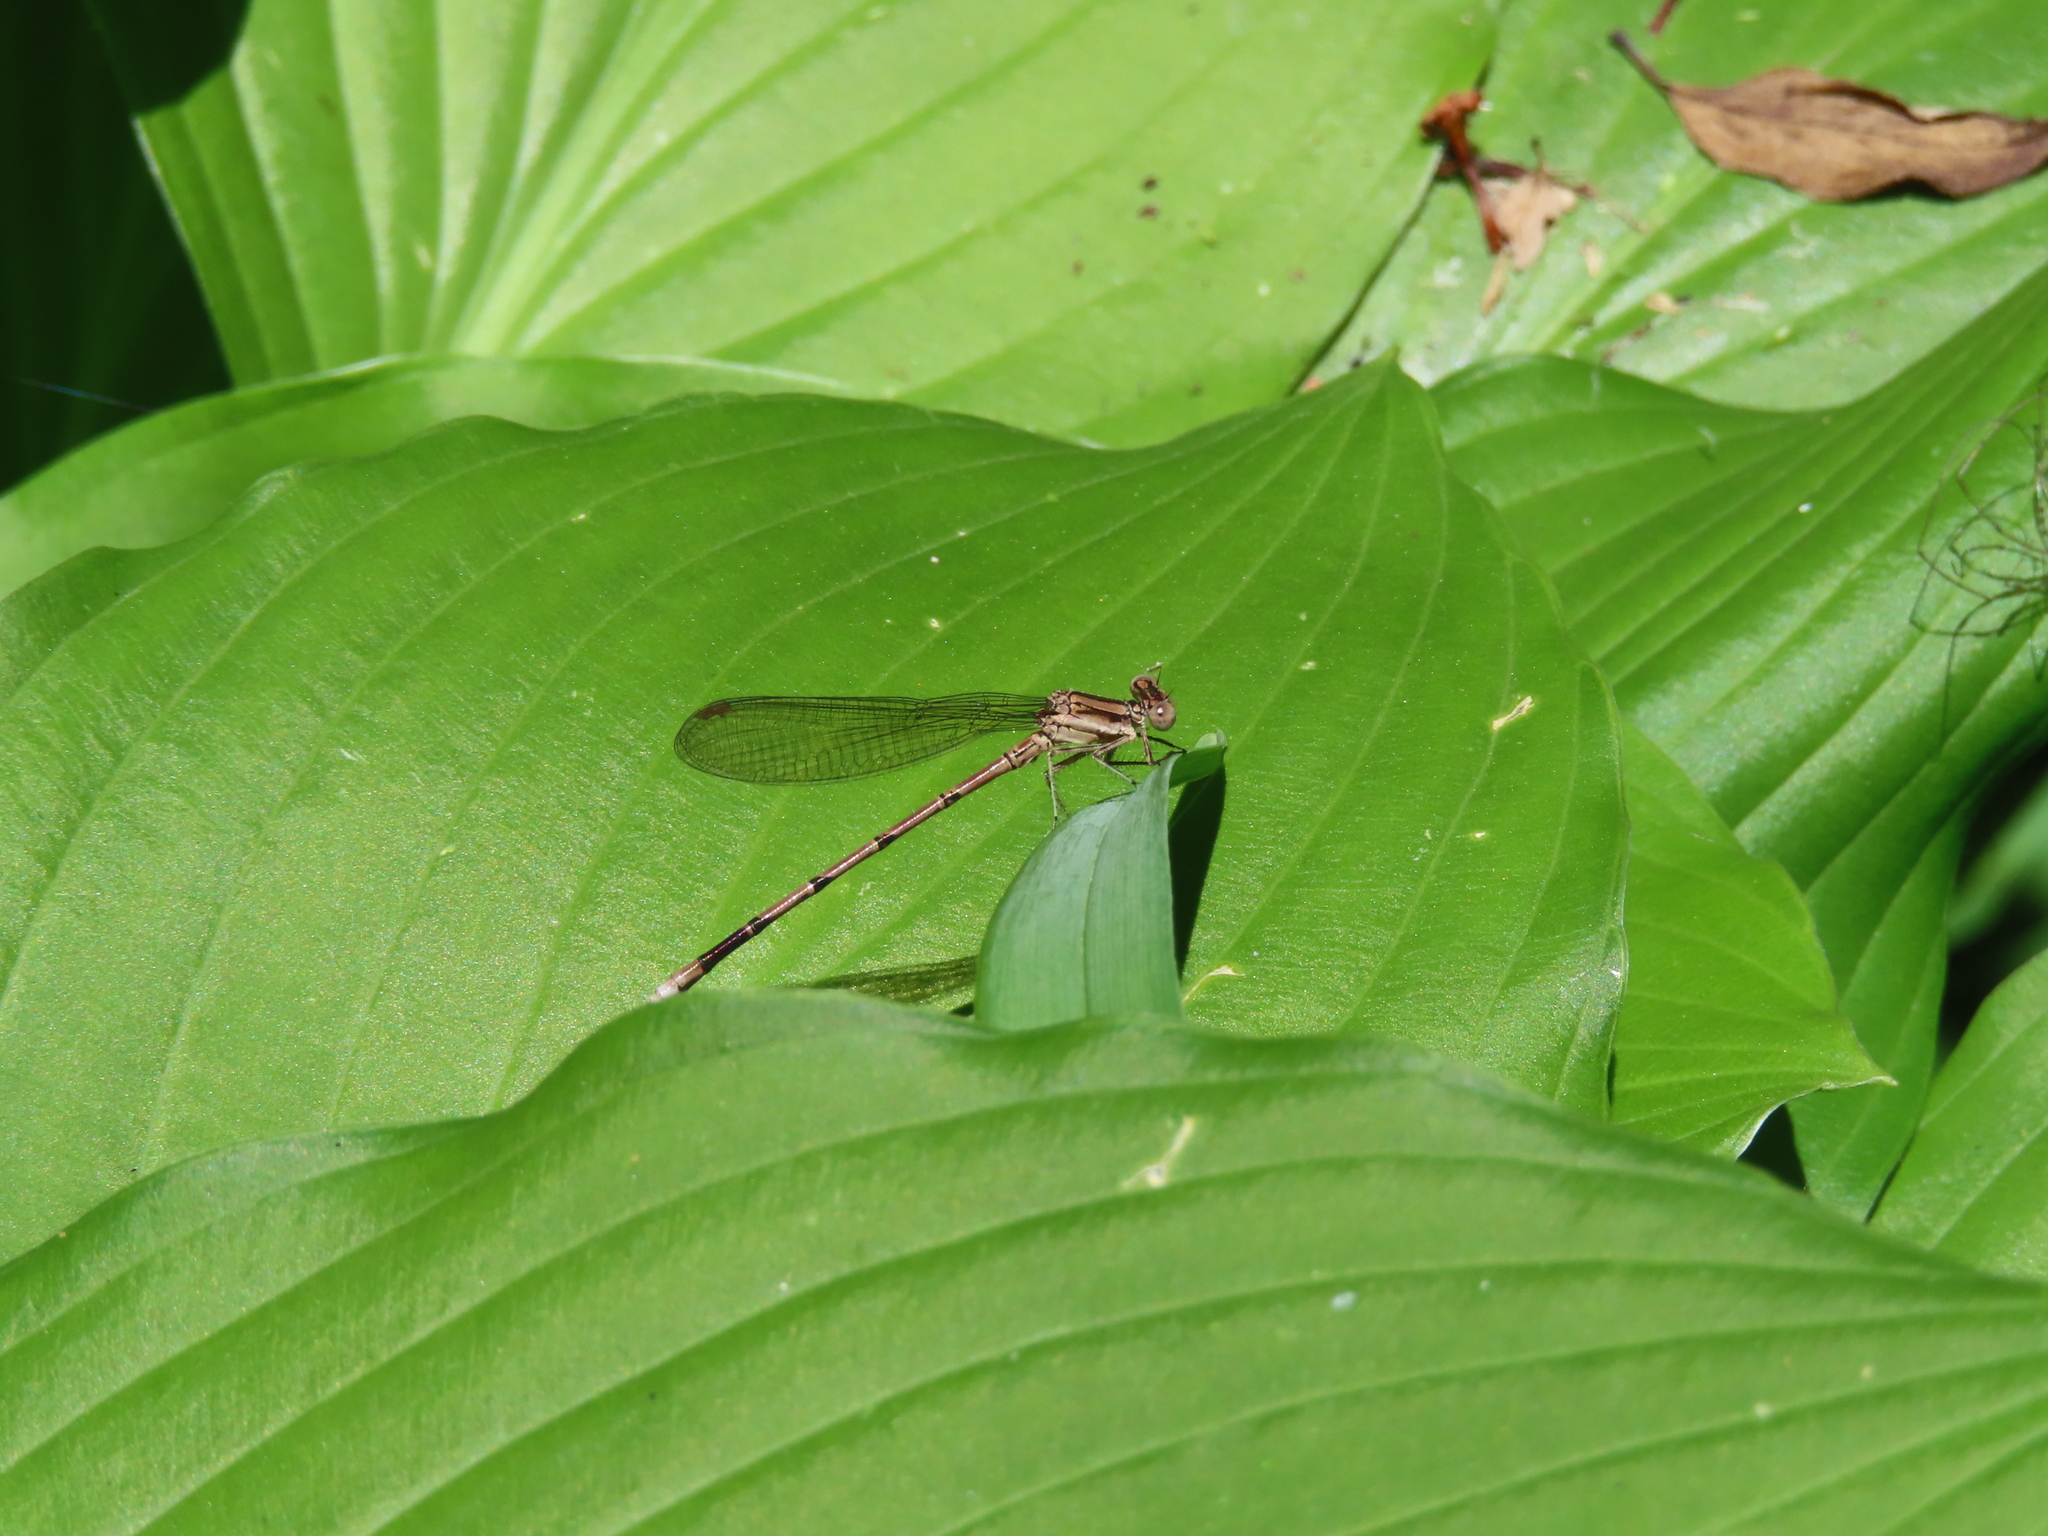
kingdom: Animalia
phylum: Arthropoda
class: Insecta
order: Odonata
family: Coenagrionidae
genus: Argia
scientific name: Argia fumipennis
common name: Variable dancer
